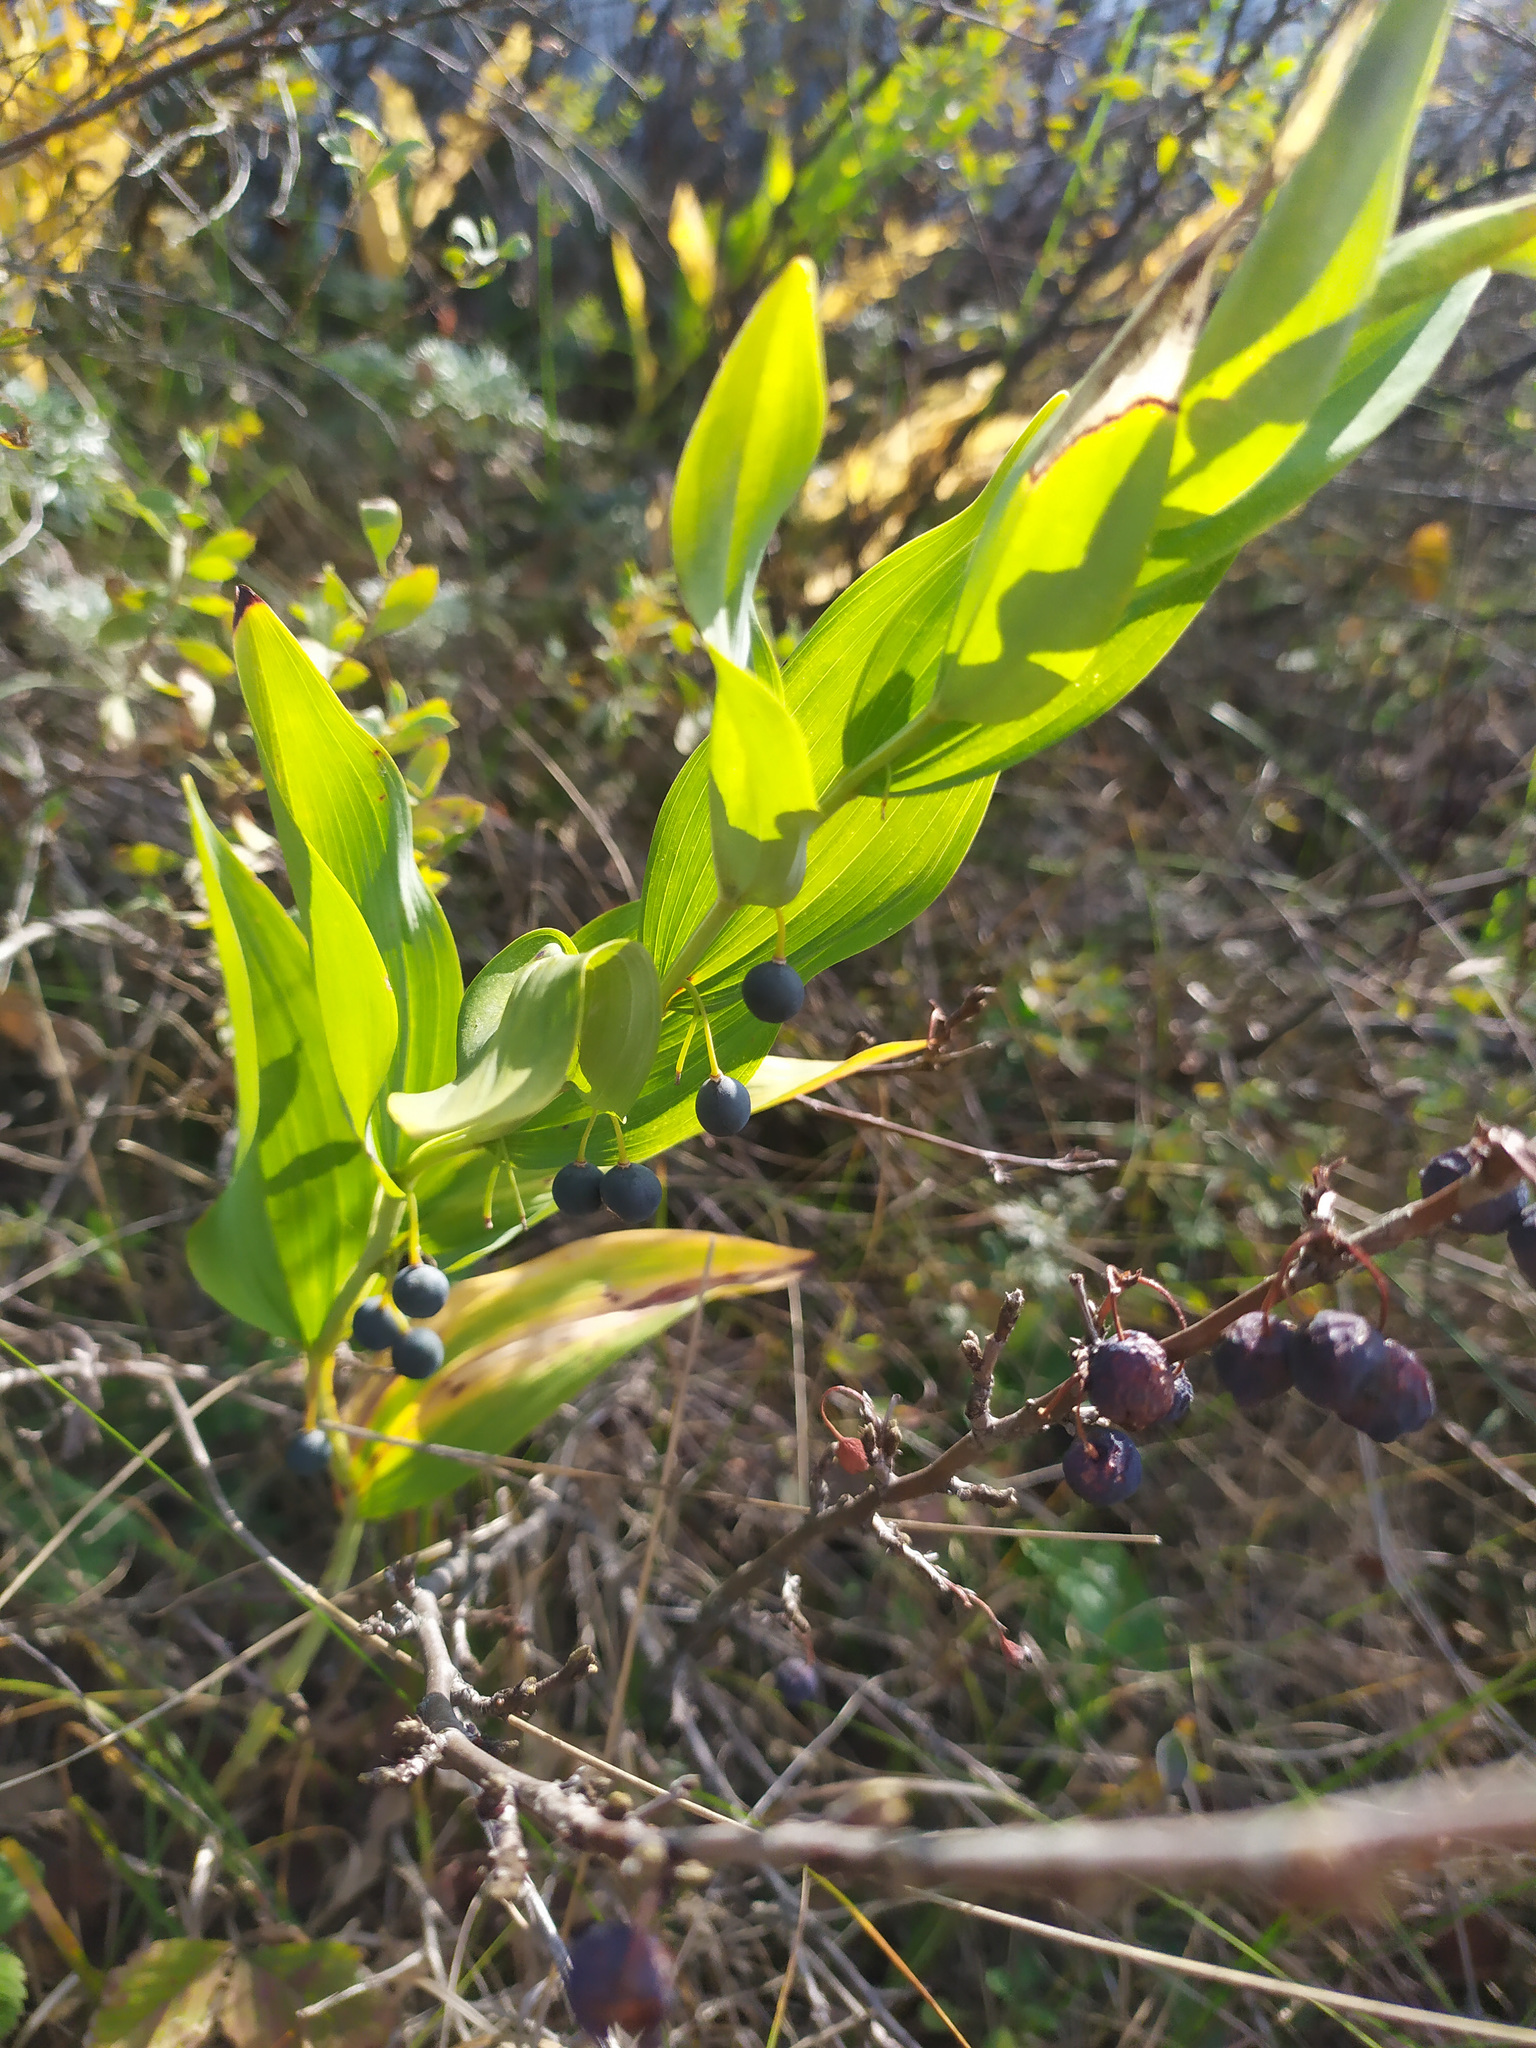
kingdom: Plantae
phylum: Tracheophyta
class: Liliopsida
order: Asparagales
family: Asparagaceae
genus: Polygonatum
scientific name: Polygonatum odoratum
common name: Angular solomon's-seal
